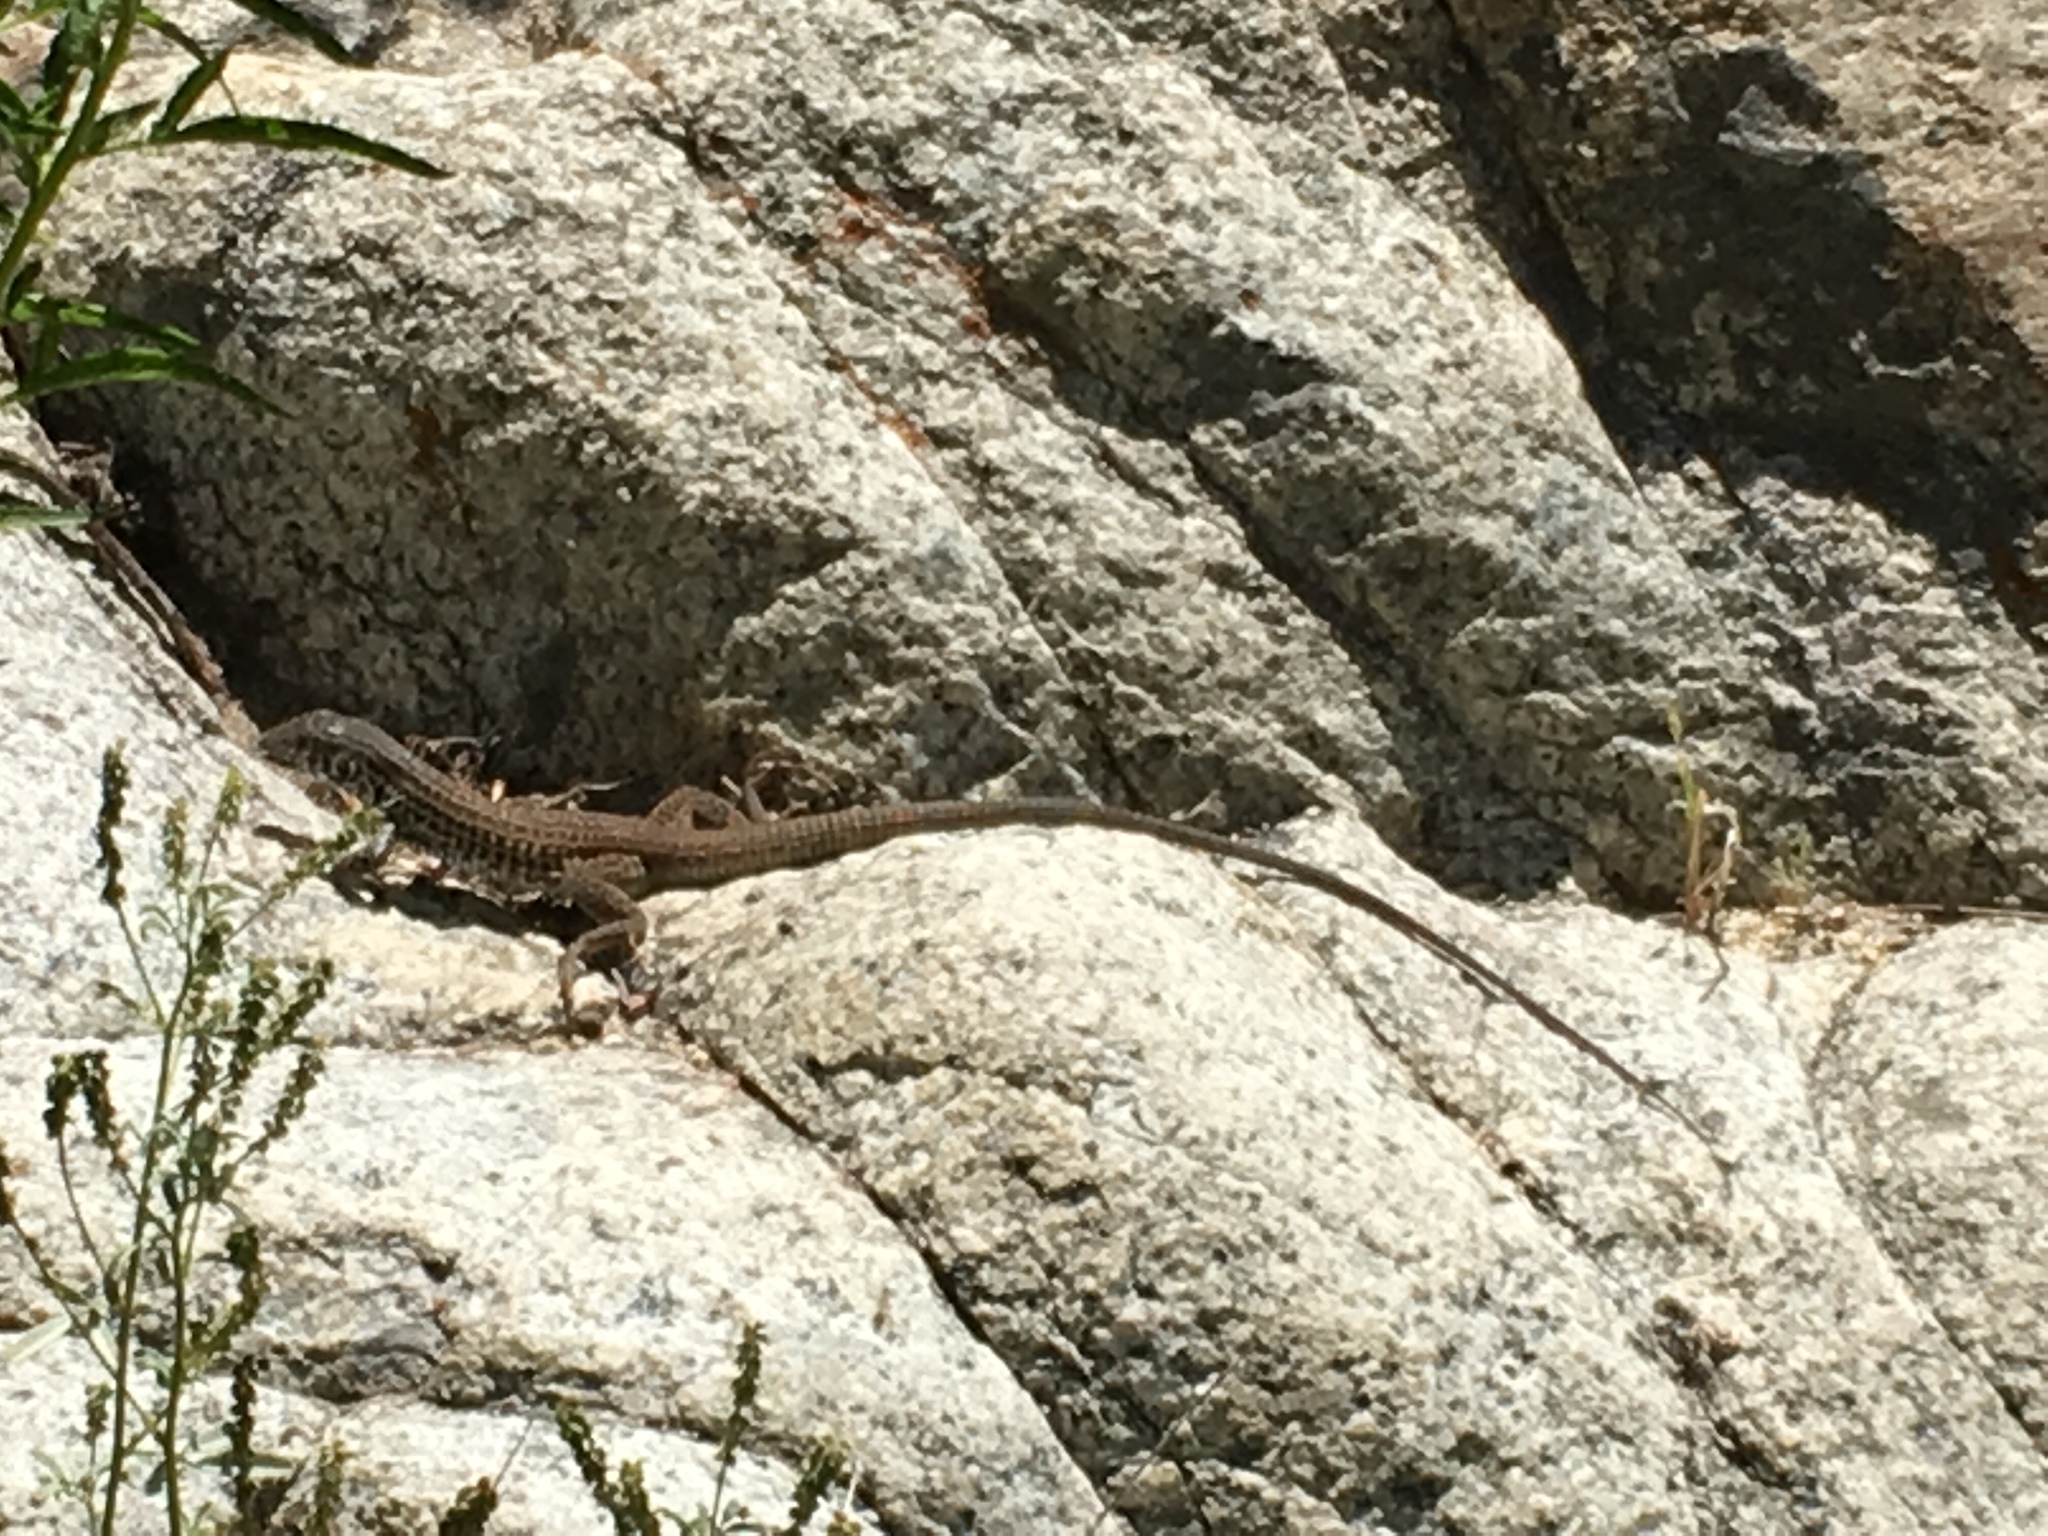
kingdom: Animalia
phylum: Chordata
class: Squamata
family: Teiidae
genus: Aspidoscelis
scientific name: Aspidoscelis tigris
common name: Tiger whiptail
